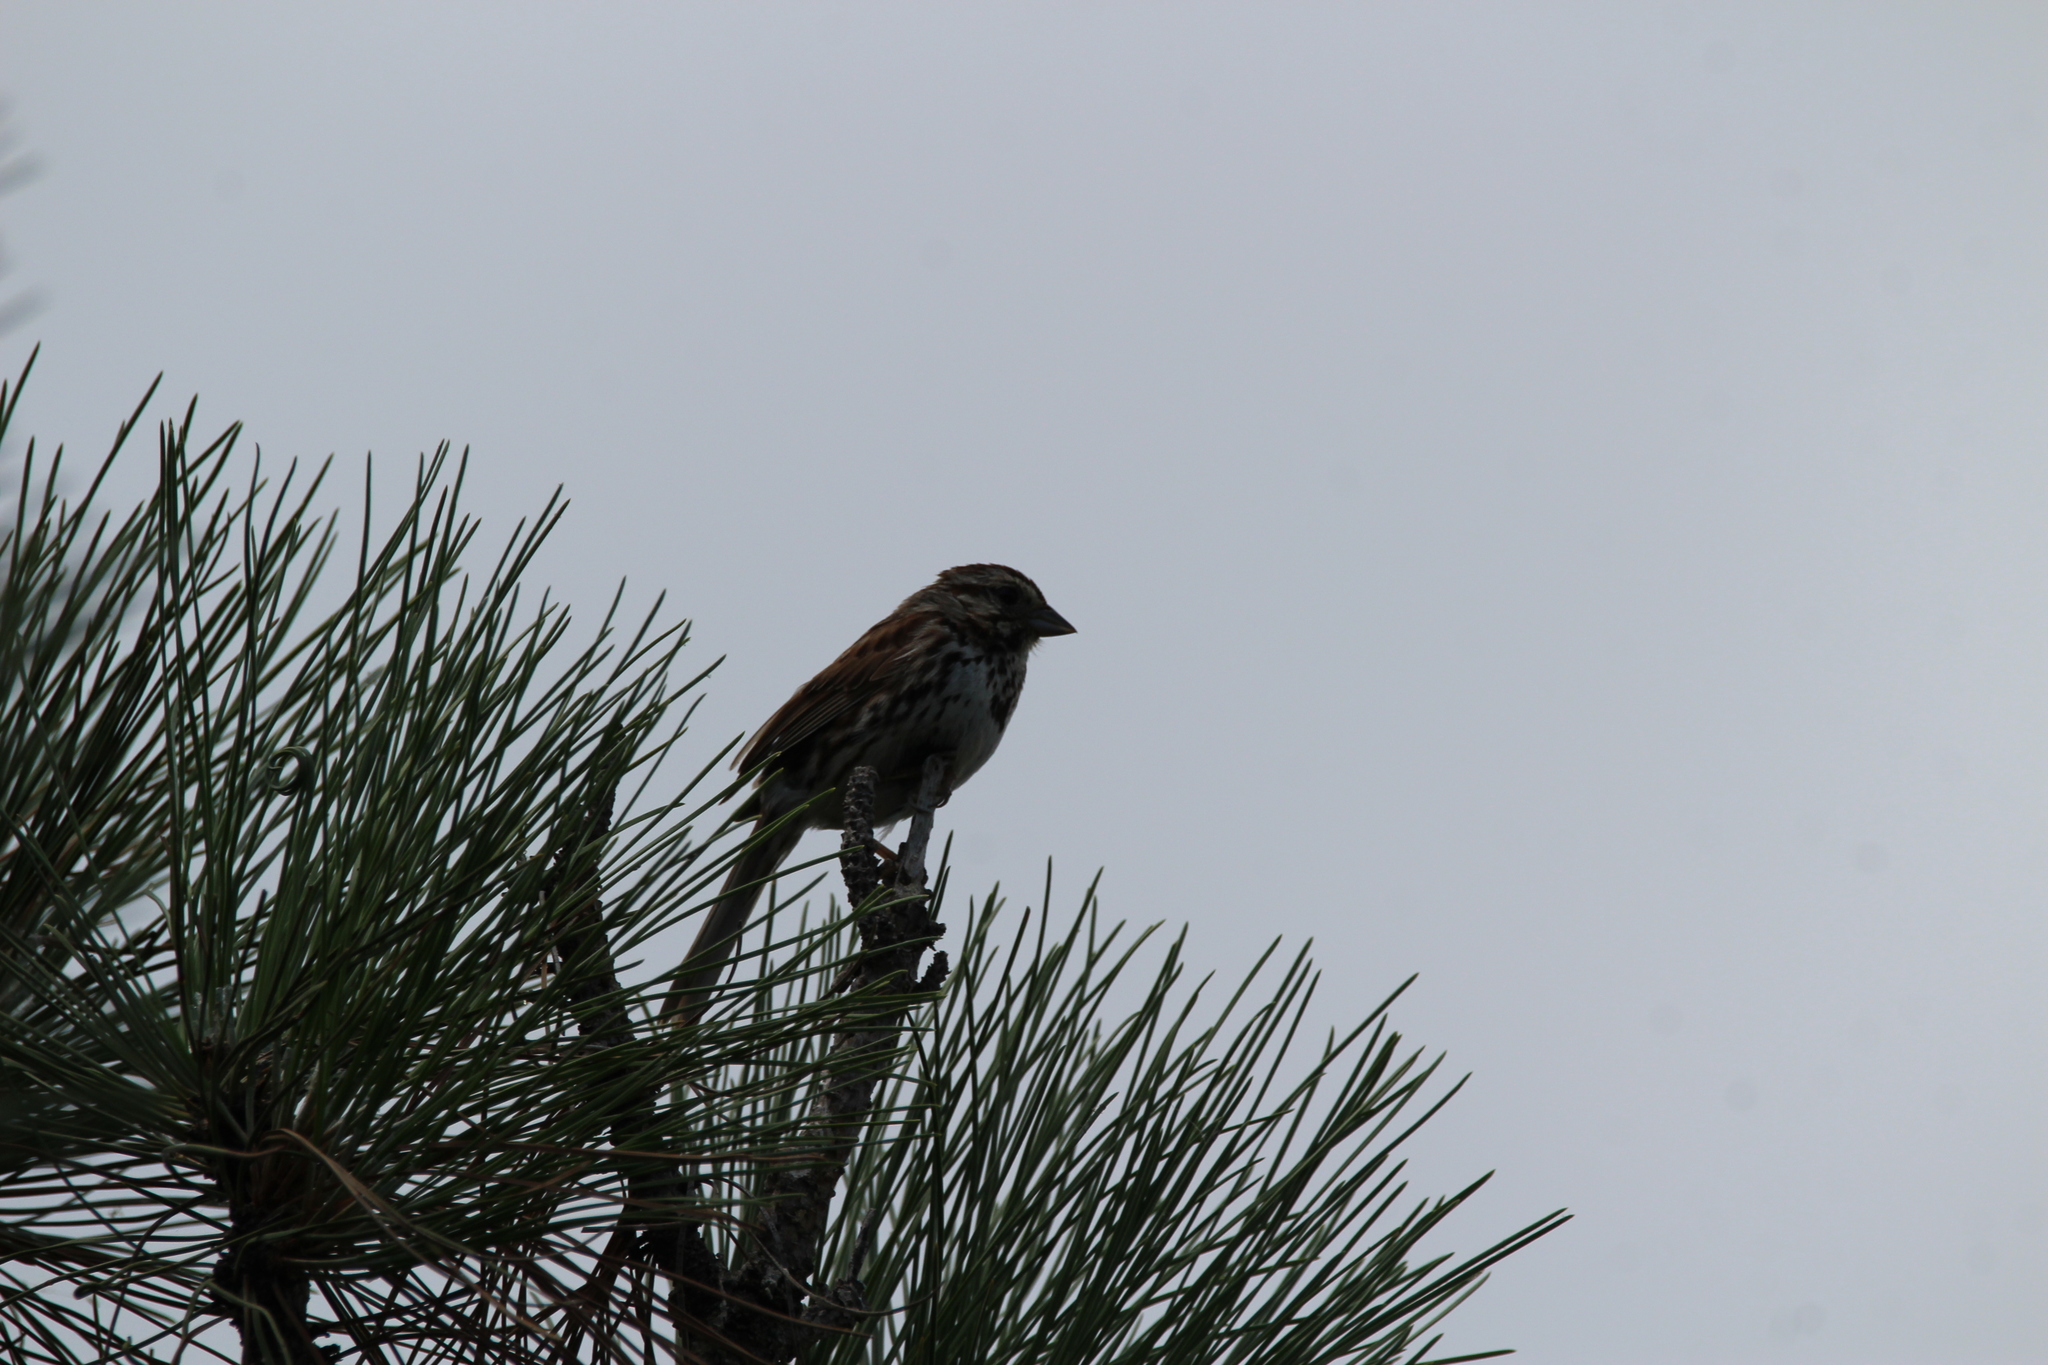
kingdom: Animalia
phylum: Chordata
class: Aves
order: Passeriformes
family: Passerellidae
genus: Melospiza
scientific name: Melospiza melodia
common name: Song sparrow
